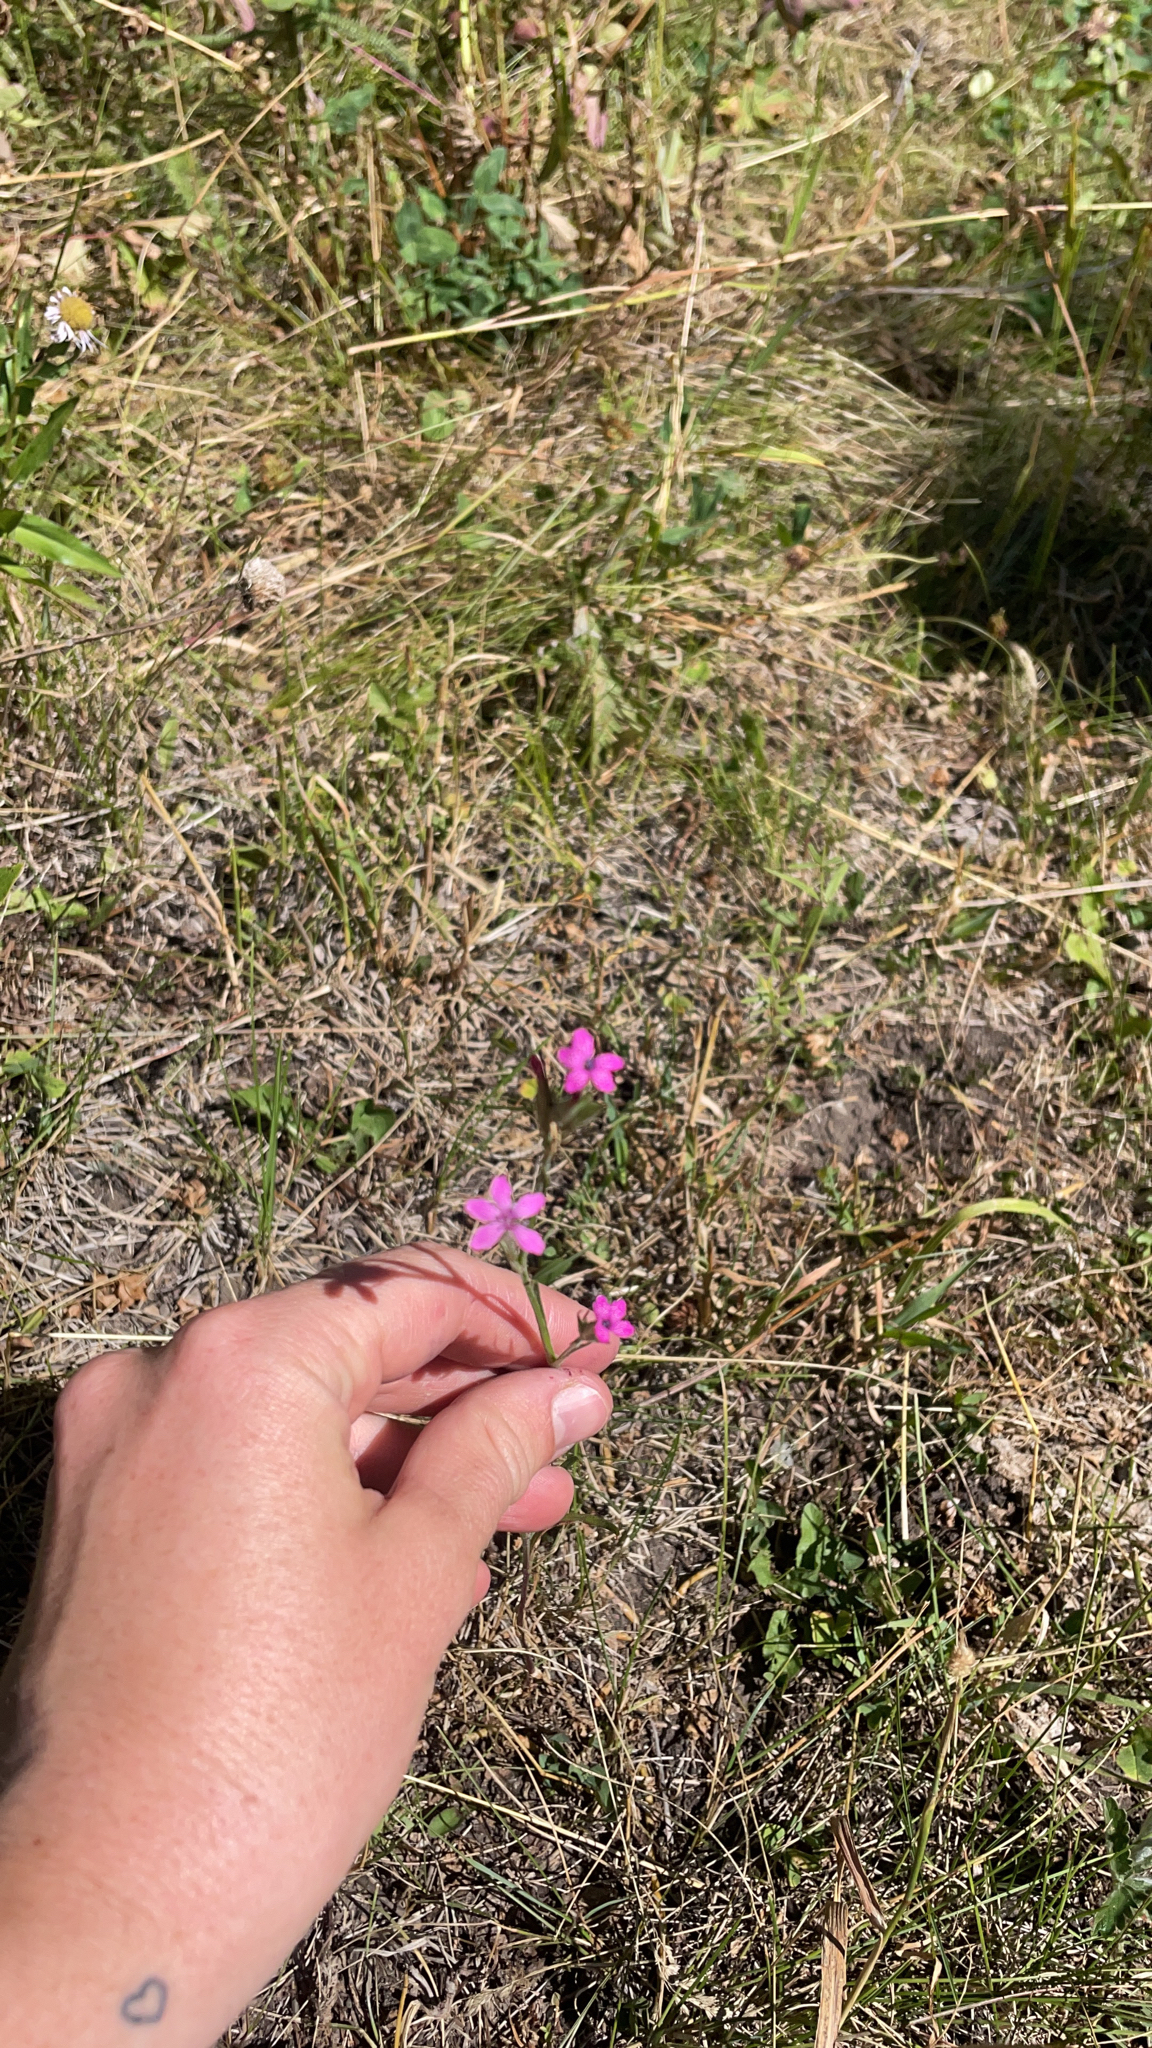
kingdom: Plantae
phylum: Tracheophyta
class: Magnoliopsida
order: Caryophyllales
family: Caryophyllaceae
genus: Dianthus
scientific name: Dianthus armeria
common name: Deptford pink
